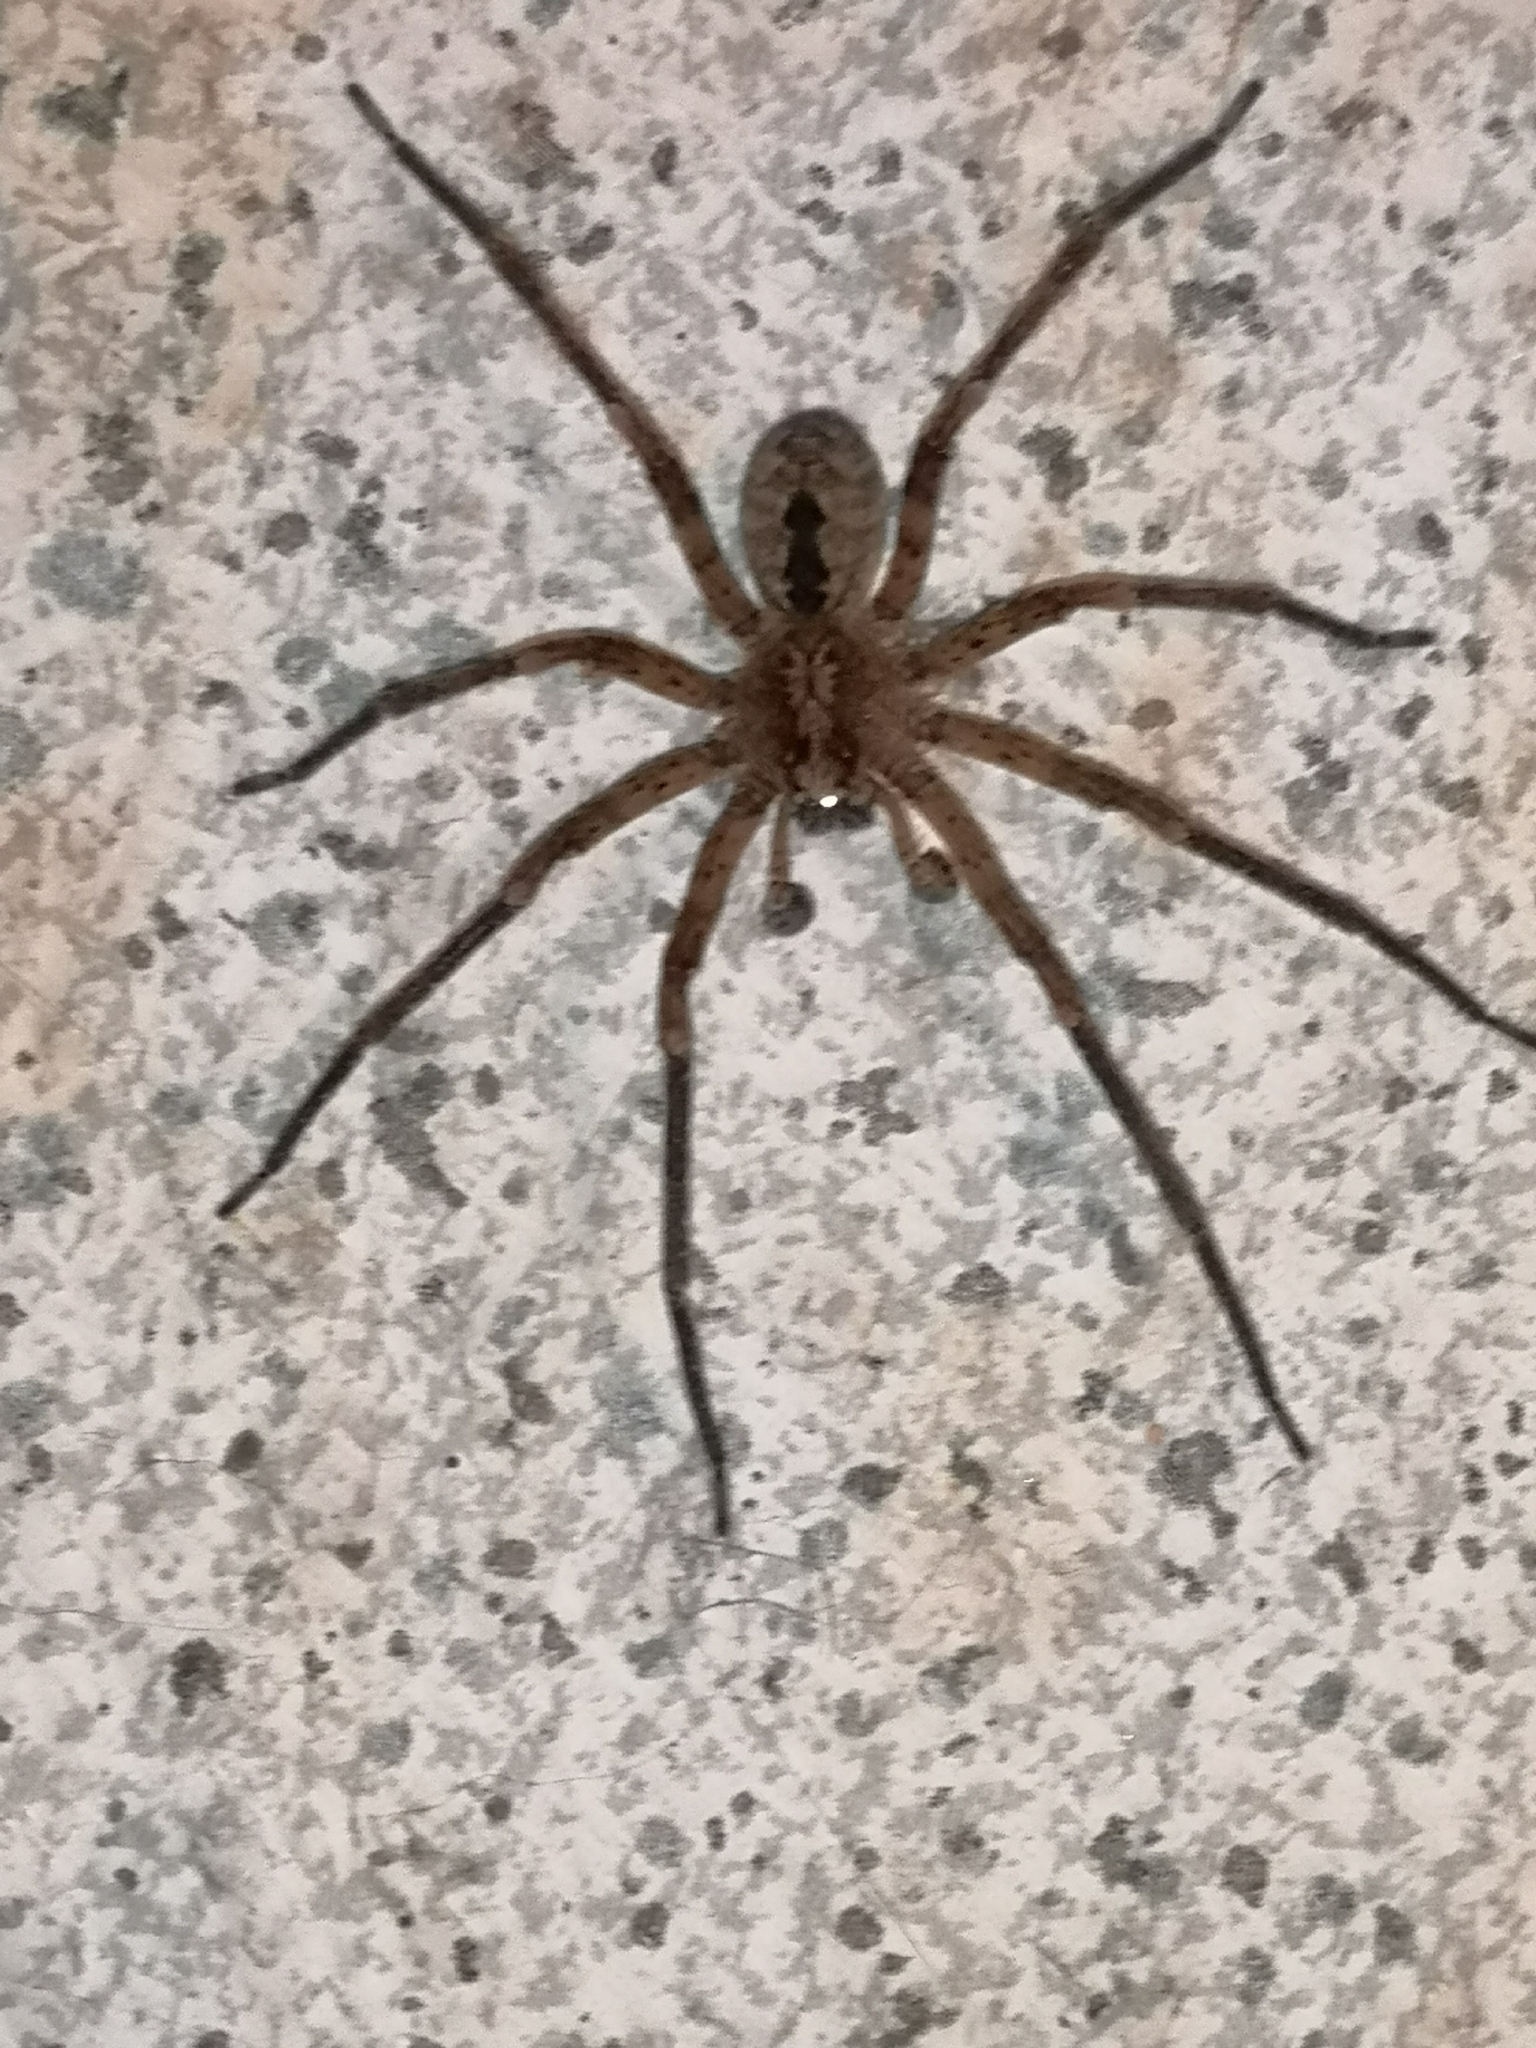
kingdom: Animalia
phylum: Arthropoda
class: Arachnida
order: Araneae
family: Zoropsidae
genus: Zoropsis
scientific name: Zoropsis spinimana
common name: Zoropsid spider
